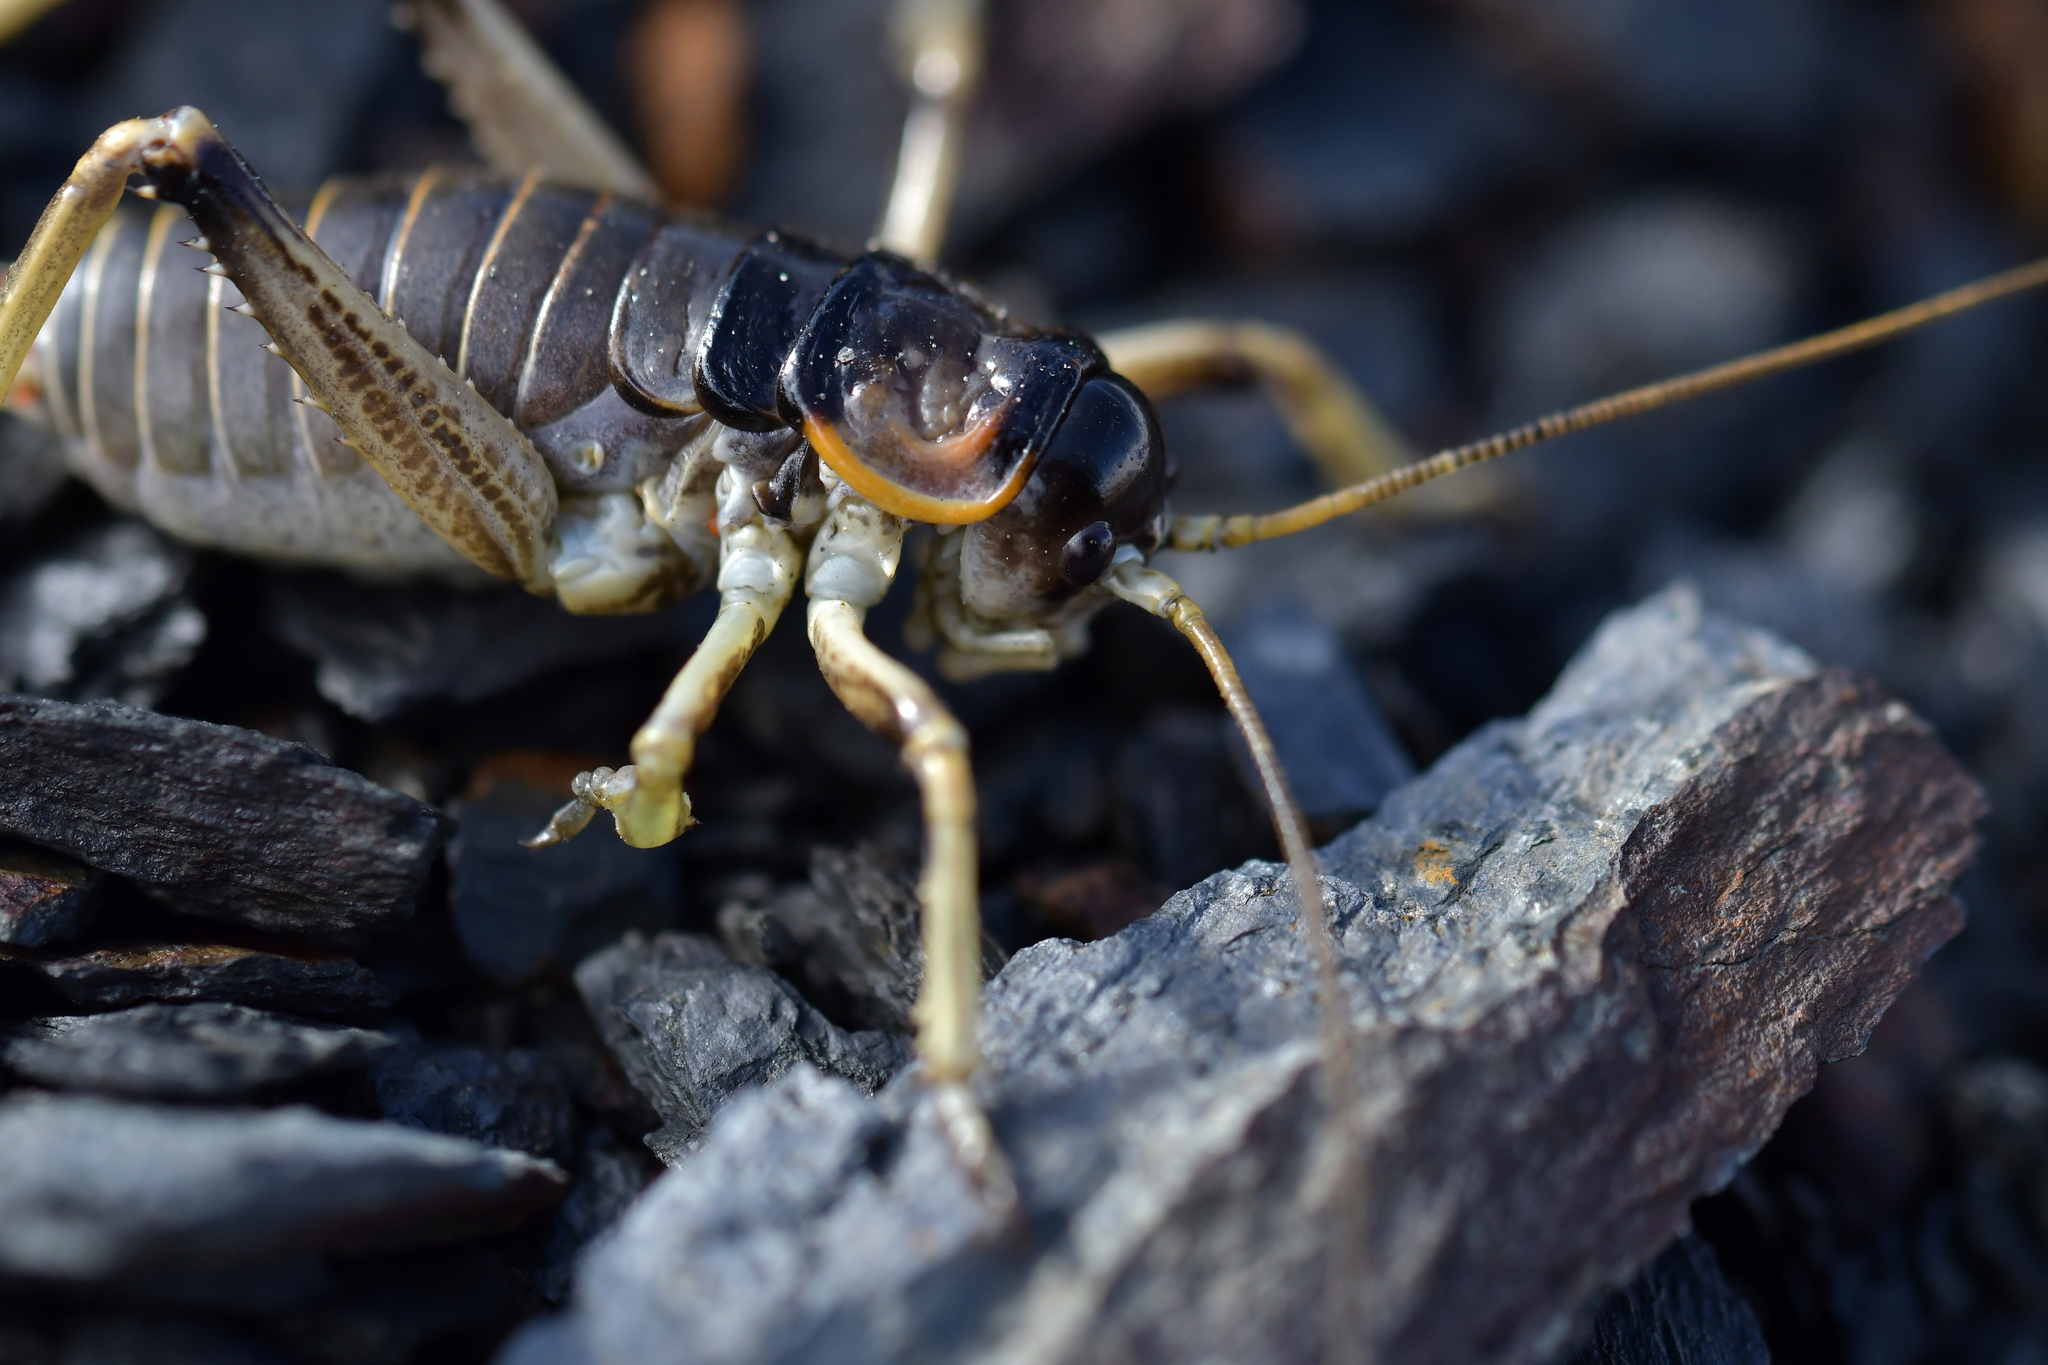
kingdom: Animalia
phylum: Arthropoda
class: Insecta
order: Orthoptera
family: Anostostomatidae
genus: Deinacrida
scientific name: Deinacrida connectens
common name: Scree weta
